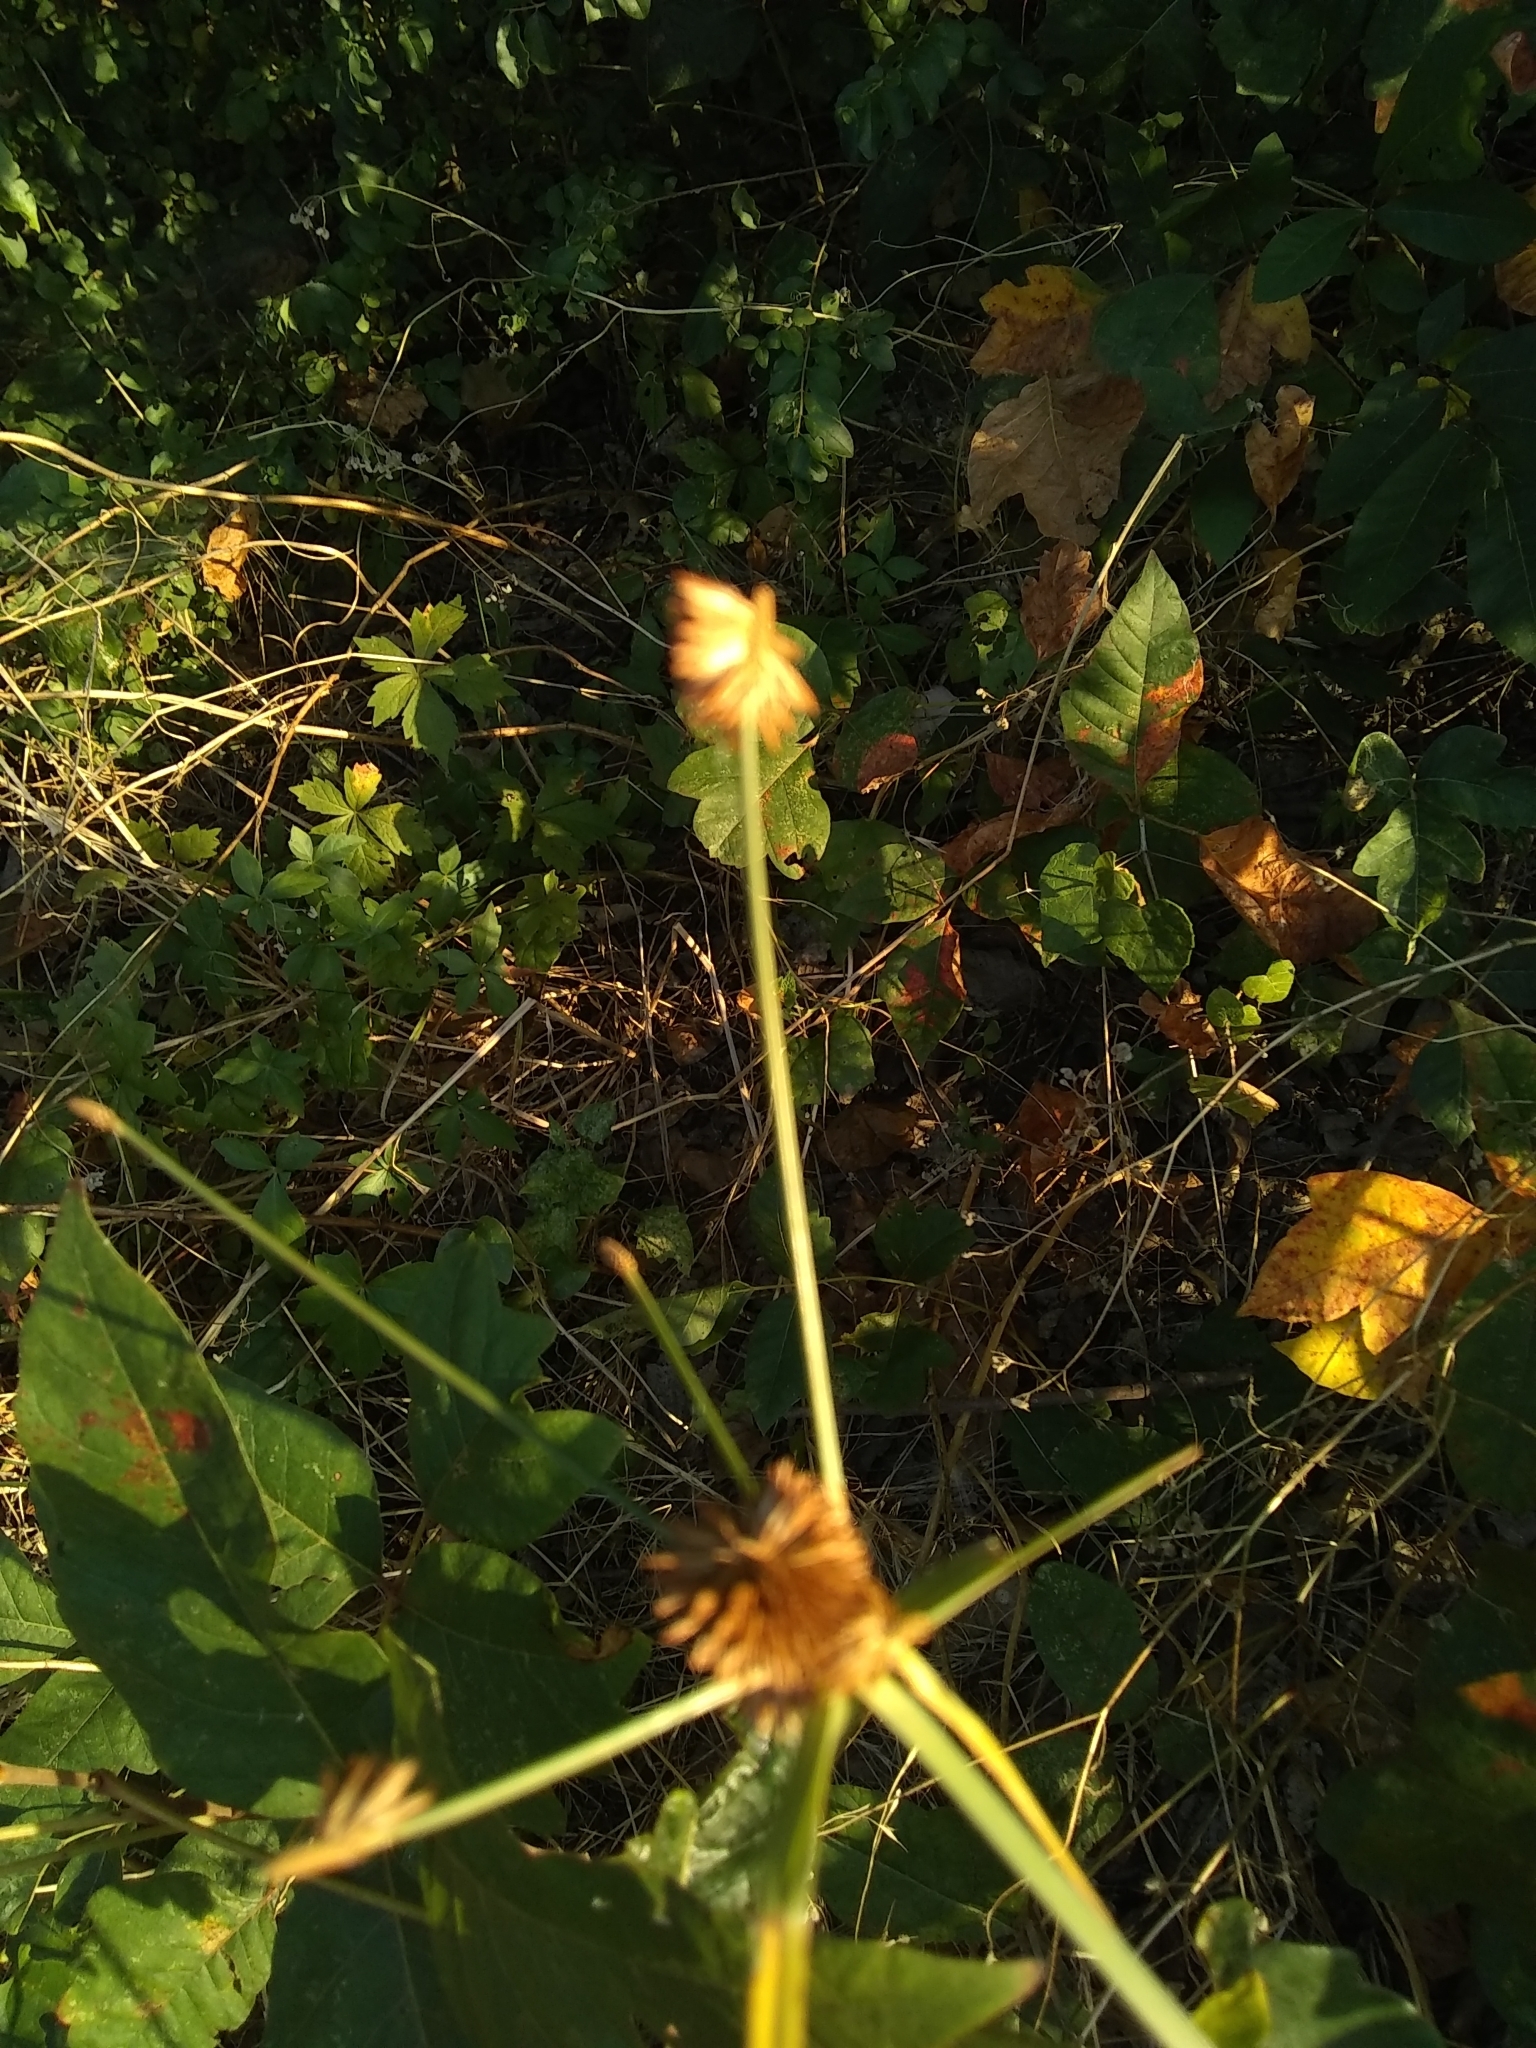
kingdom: Plantae
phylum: Tracheophyta
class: Liliopsida
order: Poales
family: Cyperaceae
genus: Cyperus
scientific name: Cyperus echinatus
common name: Teasel sedge
